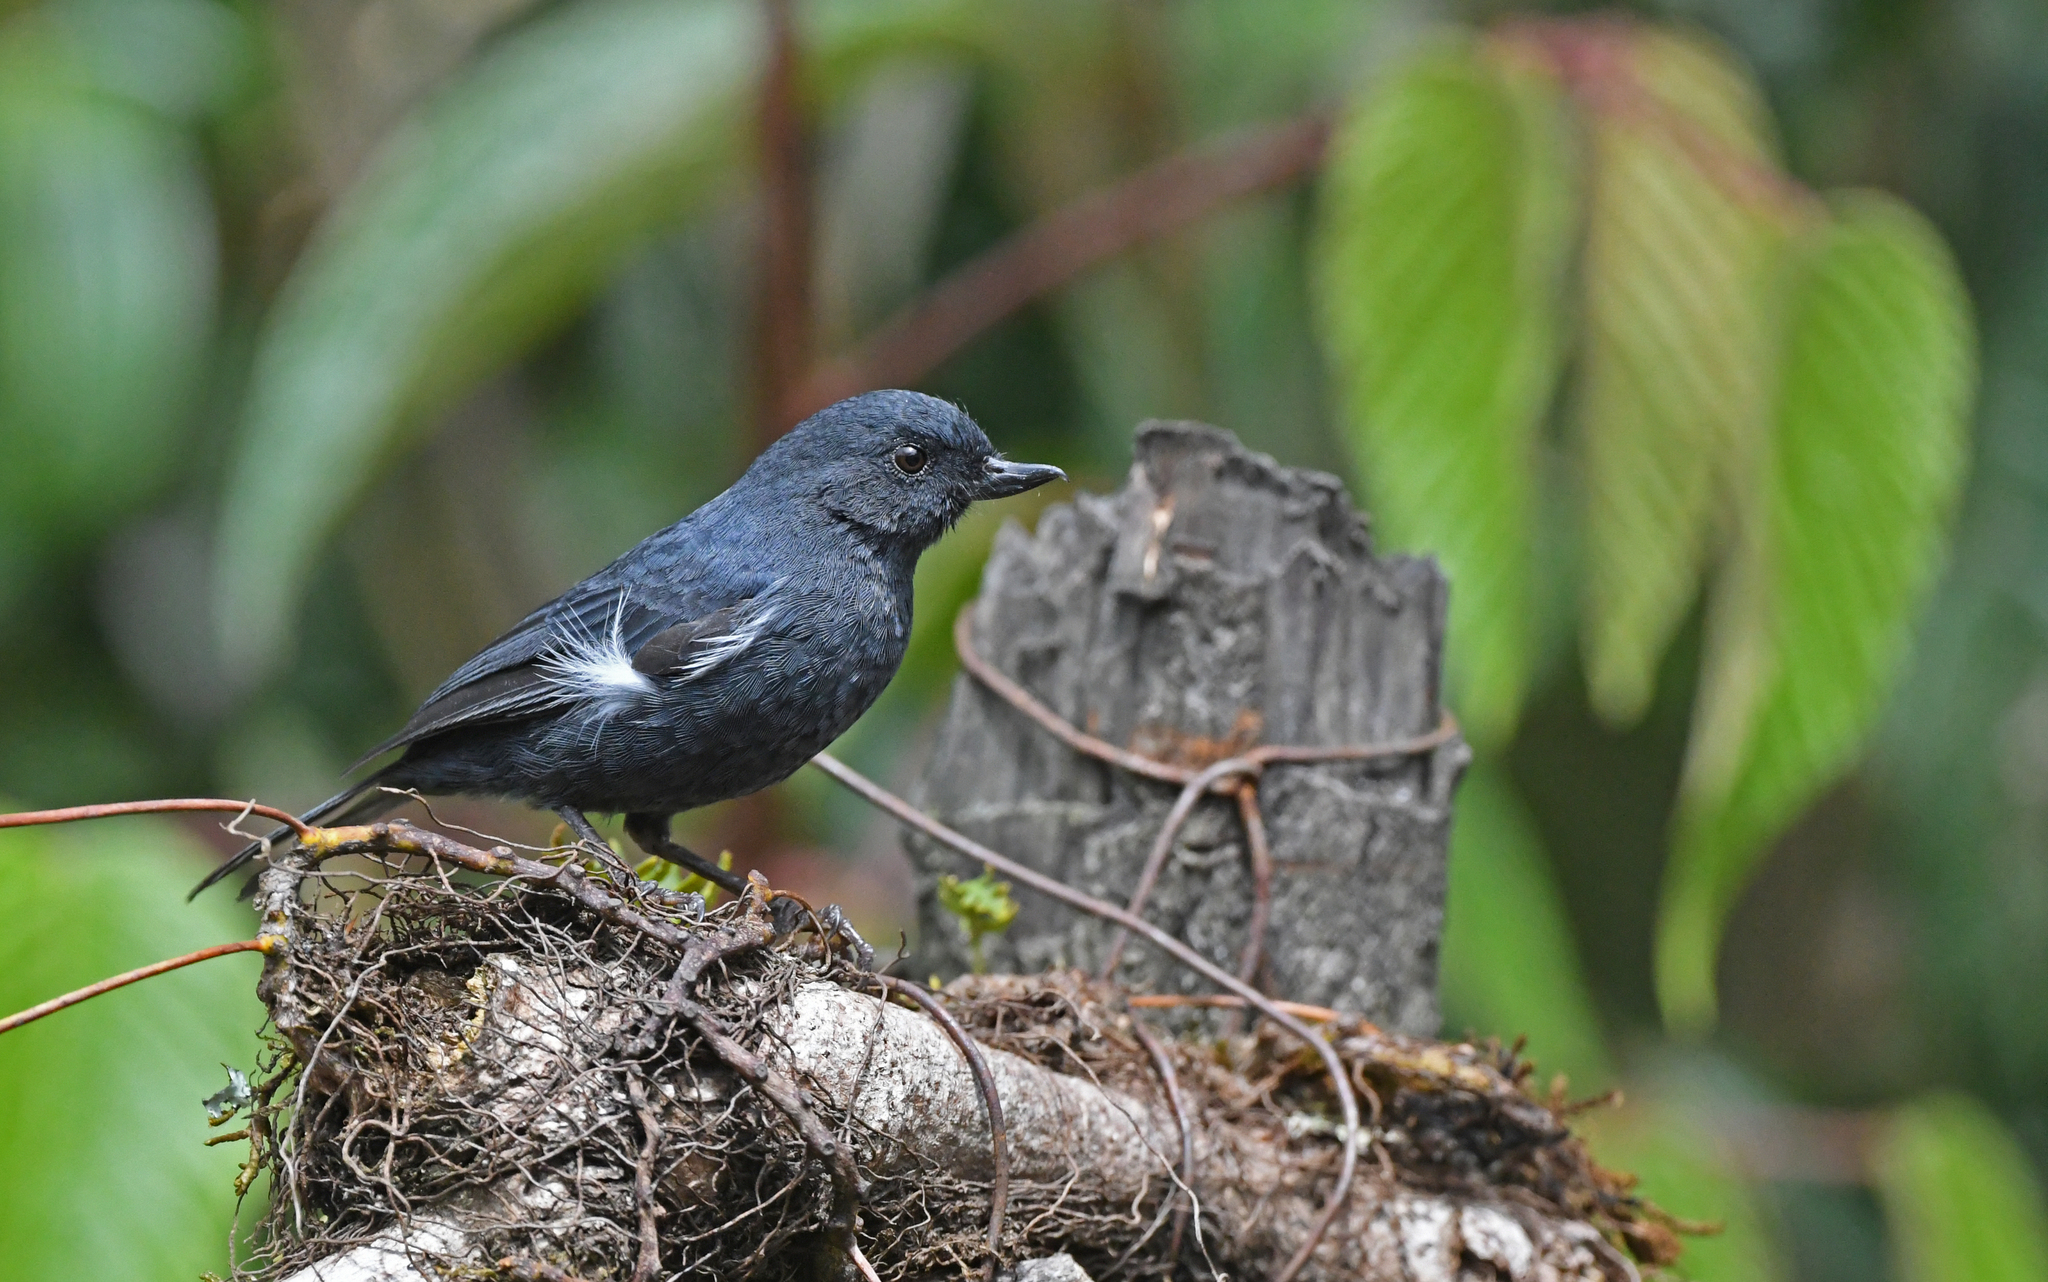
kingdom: Animalia
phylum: Chordata
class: Aves
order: Passeriformes
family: Thraupidae
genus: Diglossa
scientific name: Diglossa albilatera
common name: White-sided flowerpiercer
